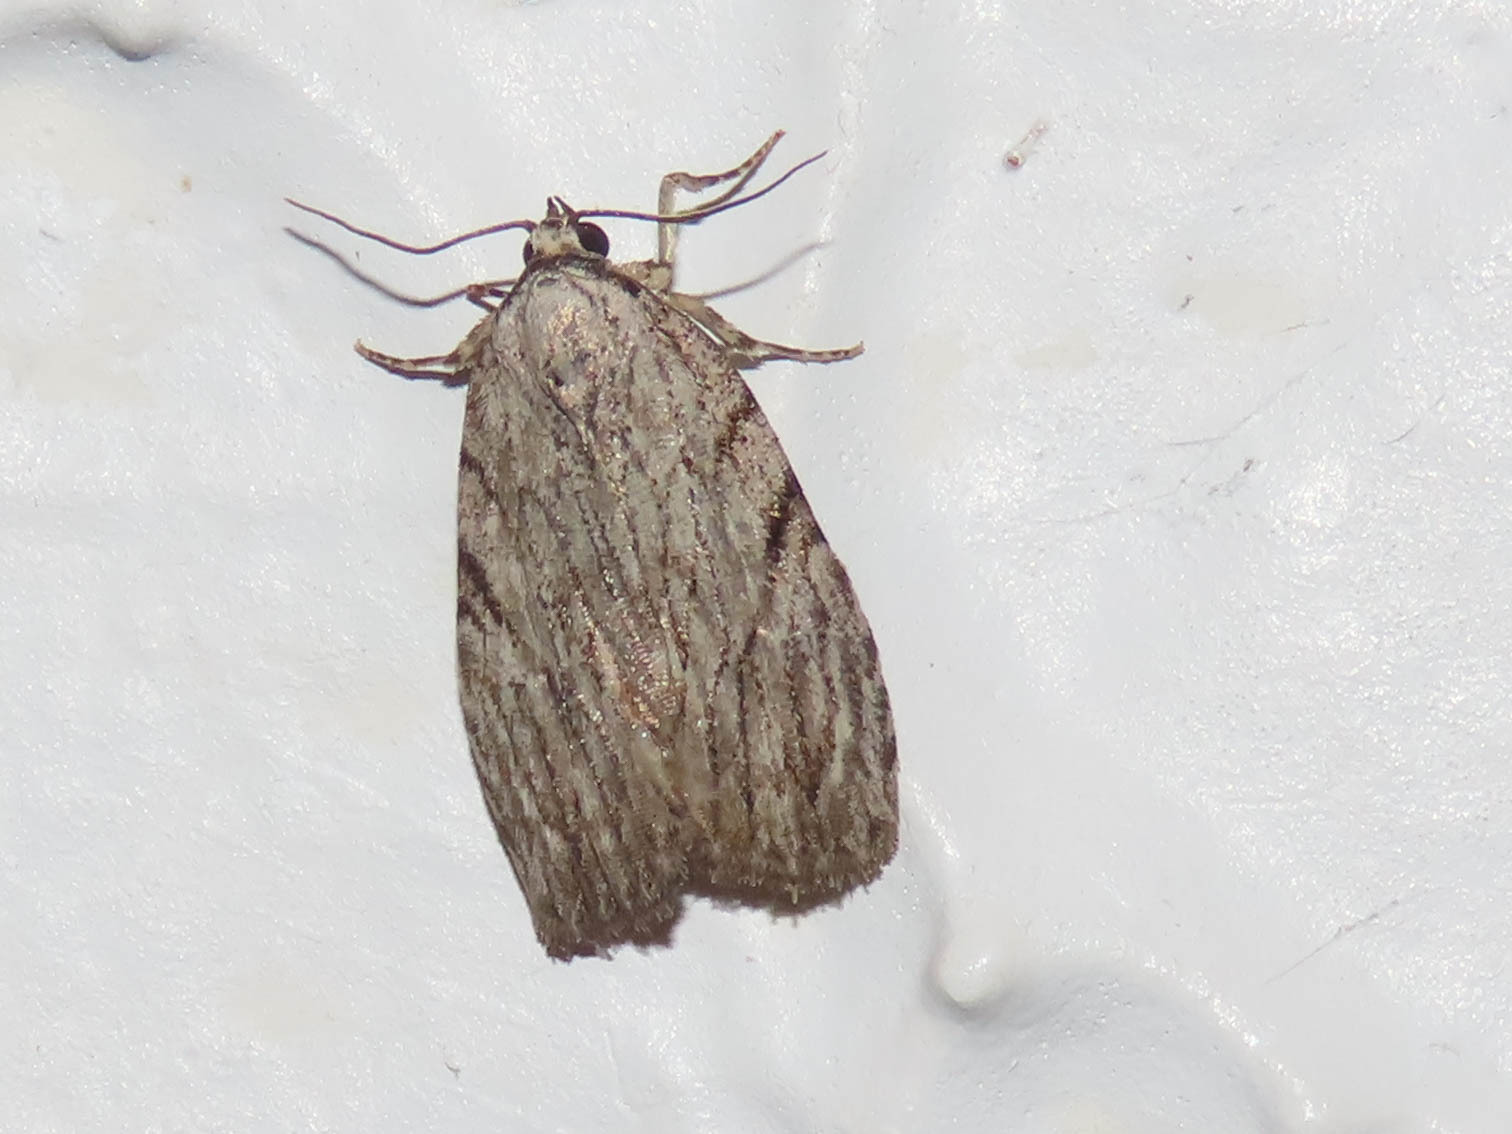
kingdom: Animalia
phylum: Arthropoda
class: Insecta
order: Lepidoptera
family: Noctuidae
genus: Balsa
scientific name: Balsa tristrigella
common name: Three-lined balsa moth
